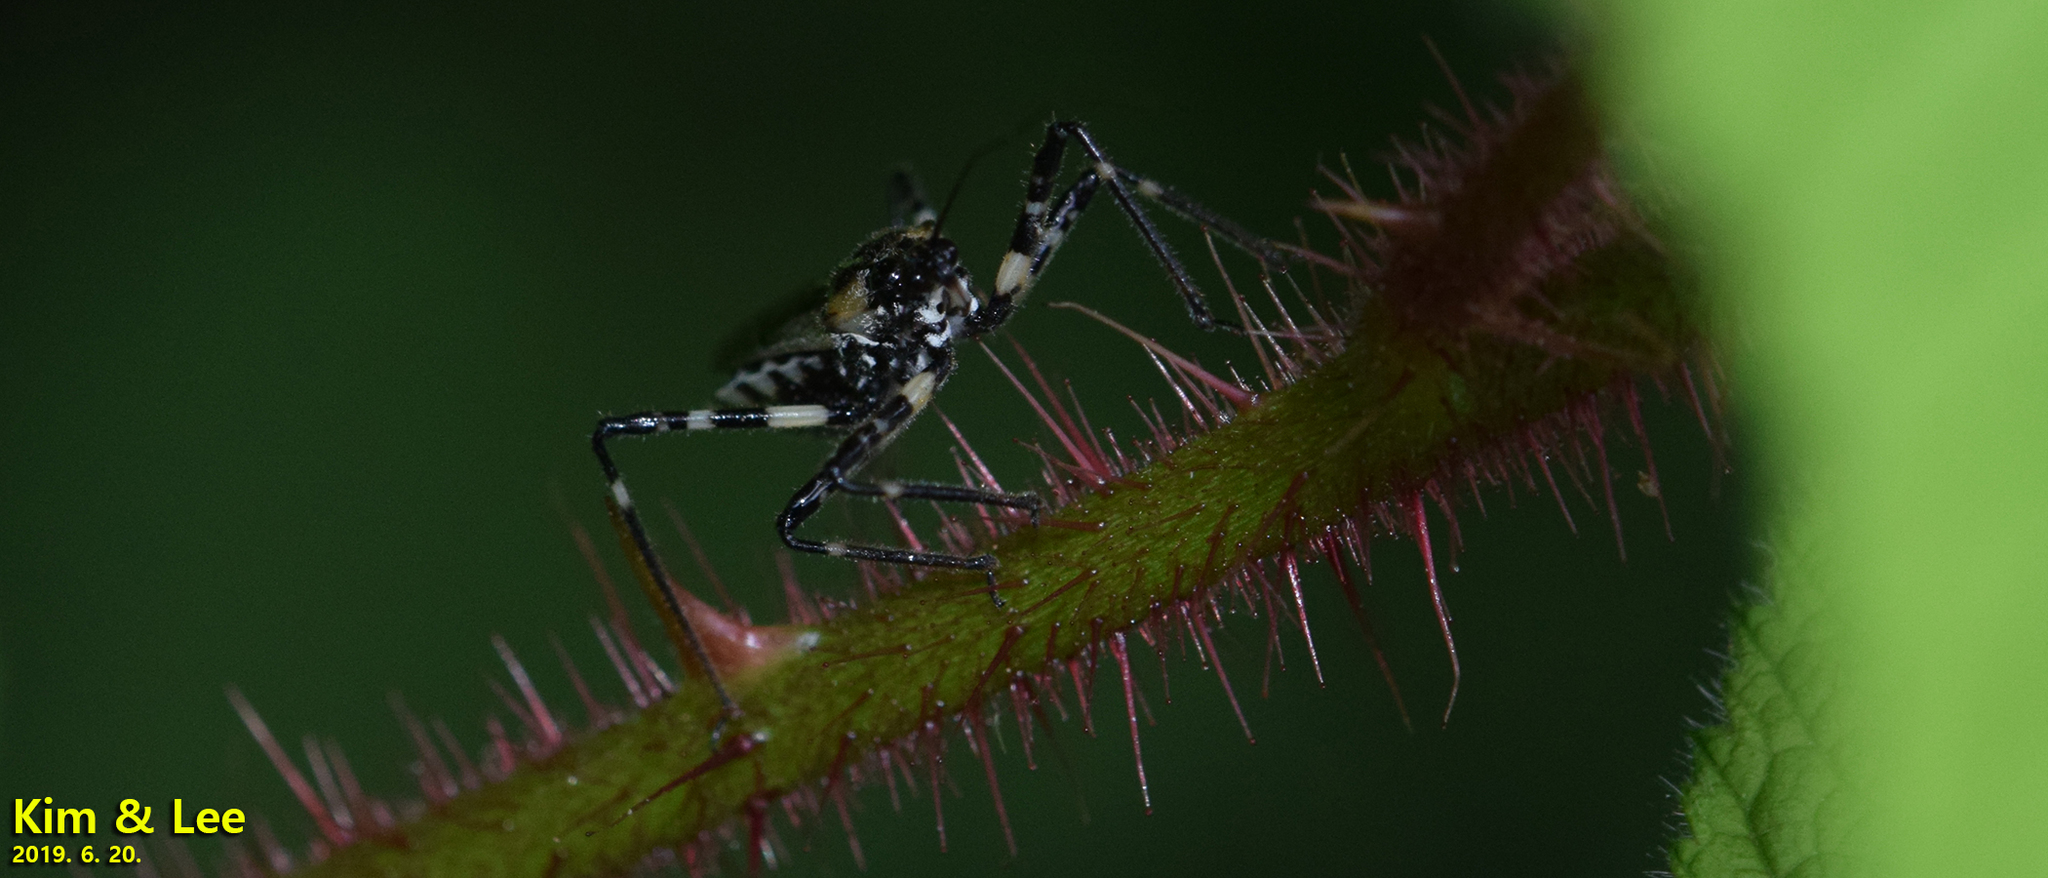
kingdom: Animalia
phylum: Arthropoda
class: Insecta
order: Hemiptera
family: Reduviidae
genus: Sphedanolestes
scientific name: Sphedanolestes impressicollis
